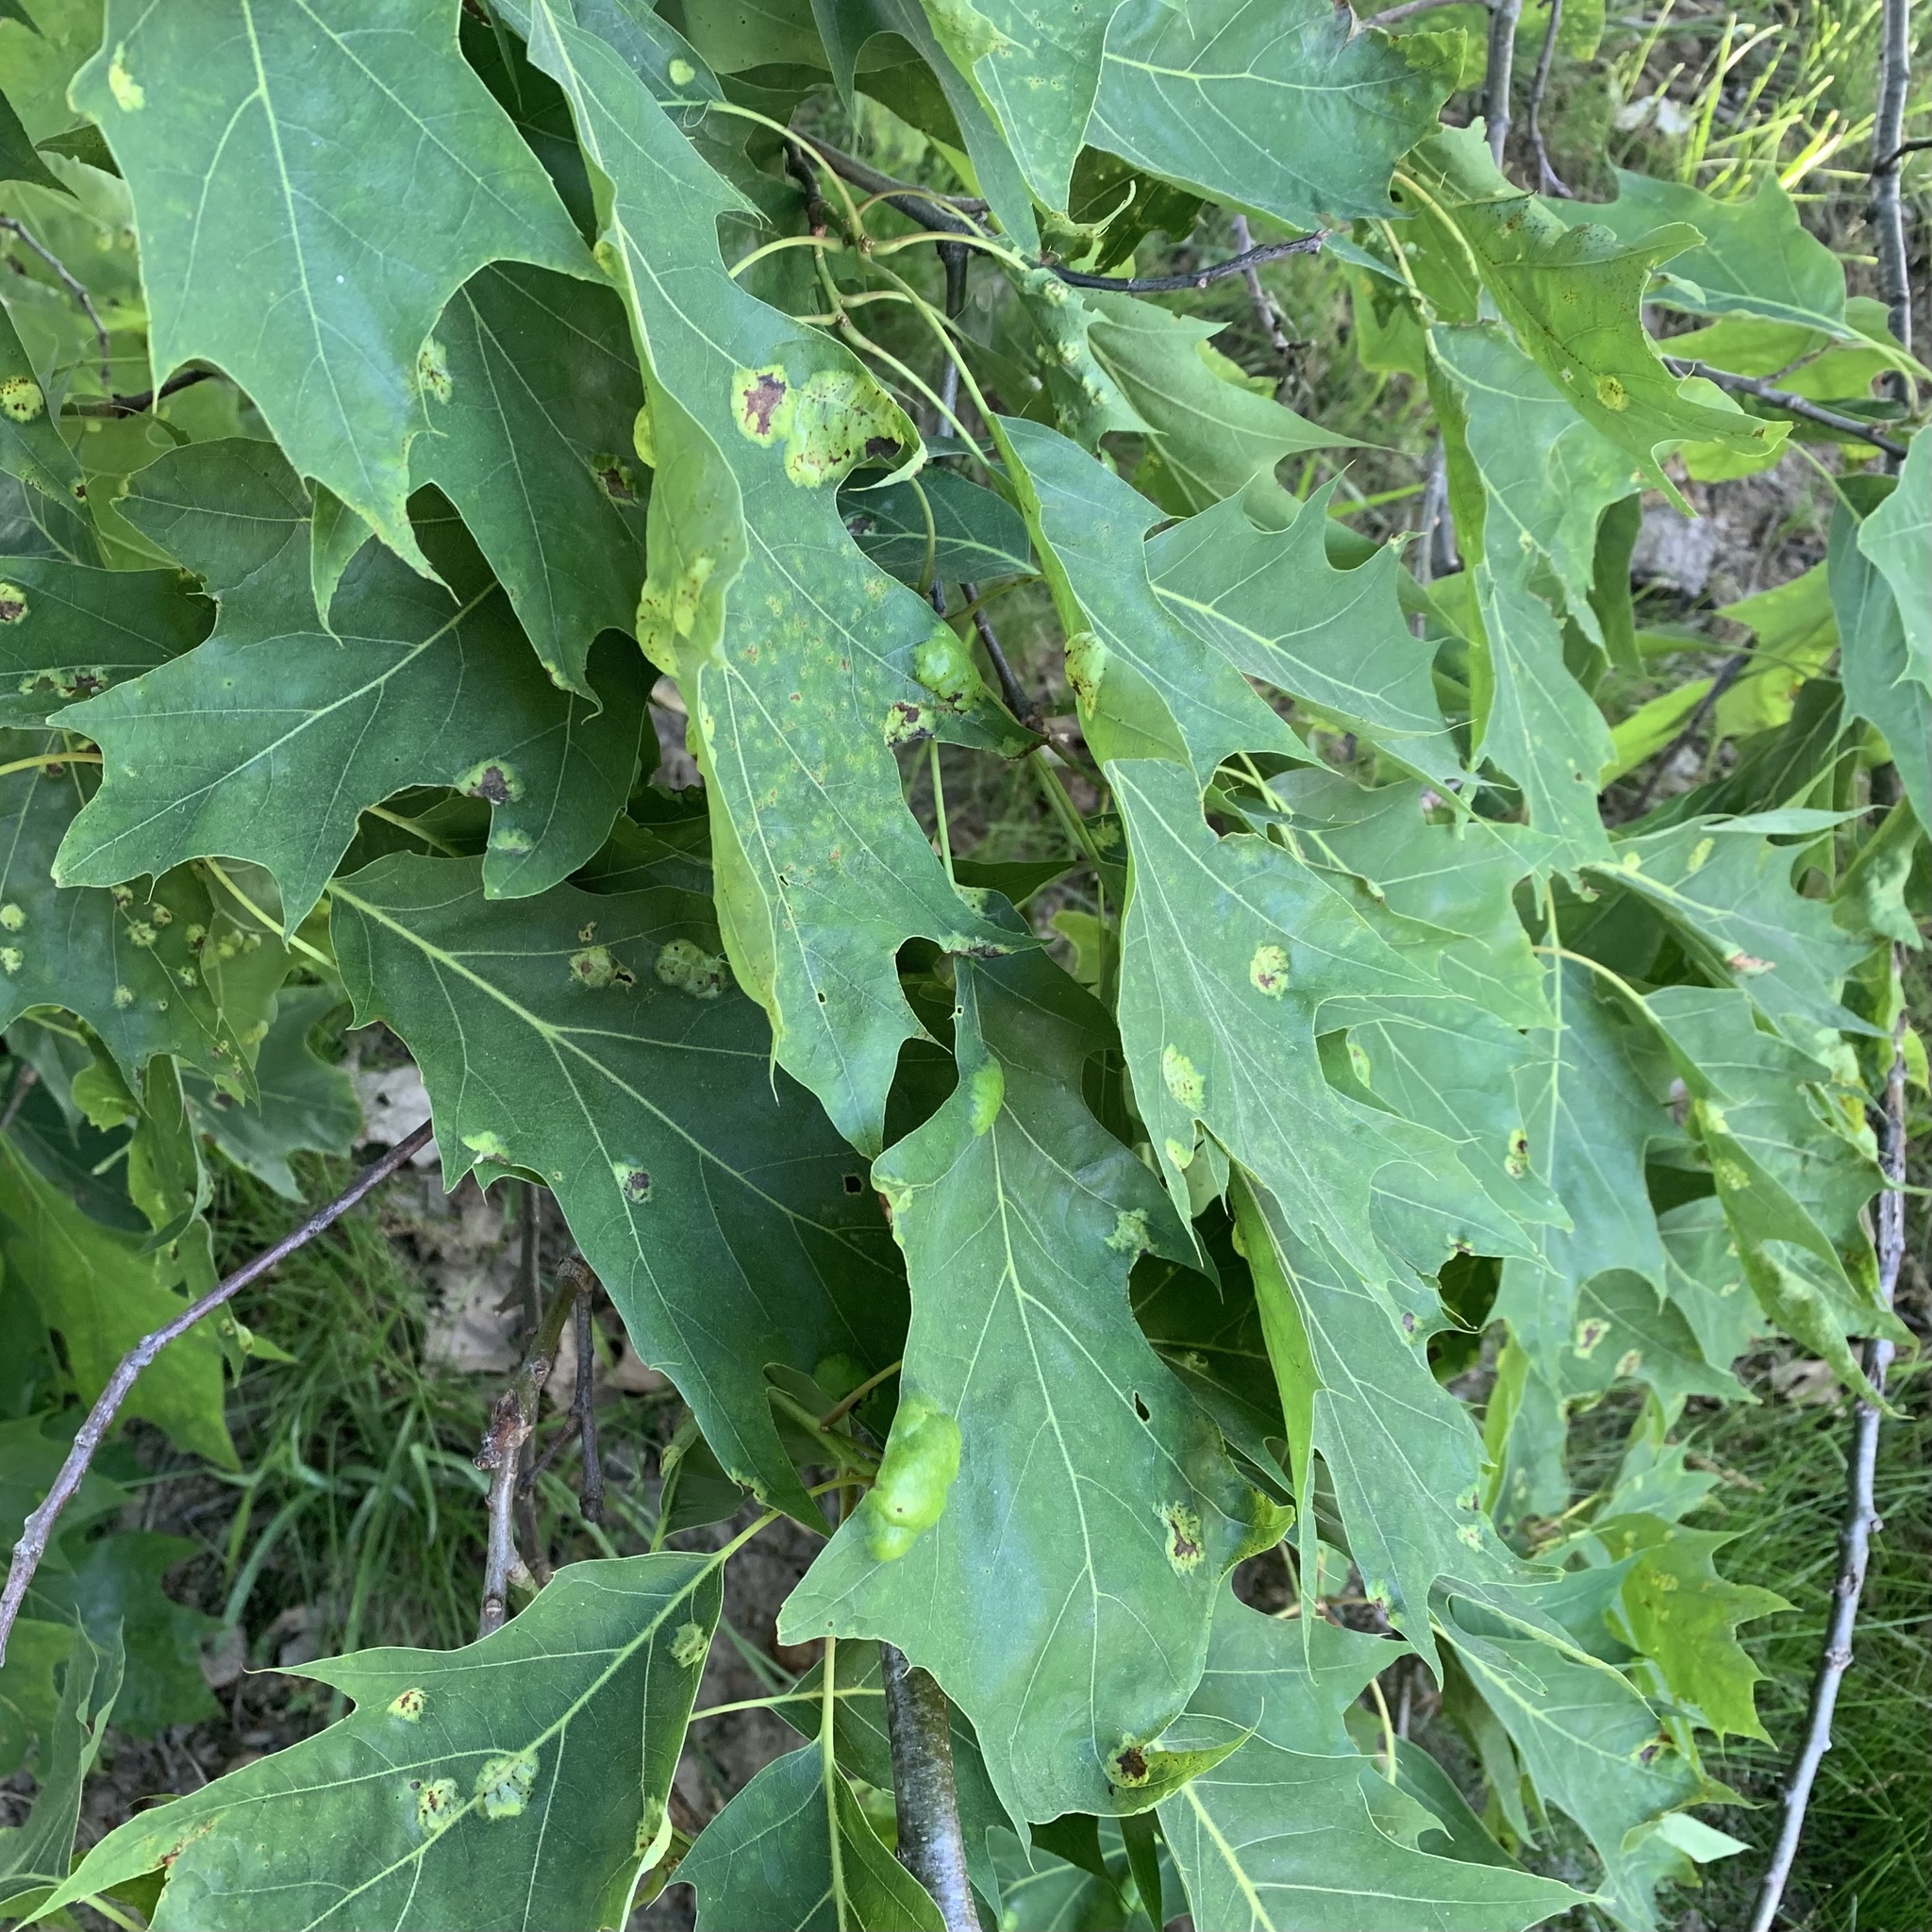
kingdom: Fungi
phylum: Ascomycota
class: Taphrinomycetes
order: Taphrinales
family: Taphrinaceae
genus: Taphrina
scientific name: Taphrina caerulescens
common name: Oak leaf blister
